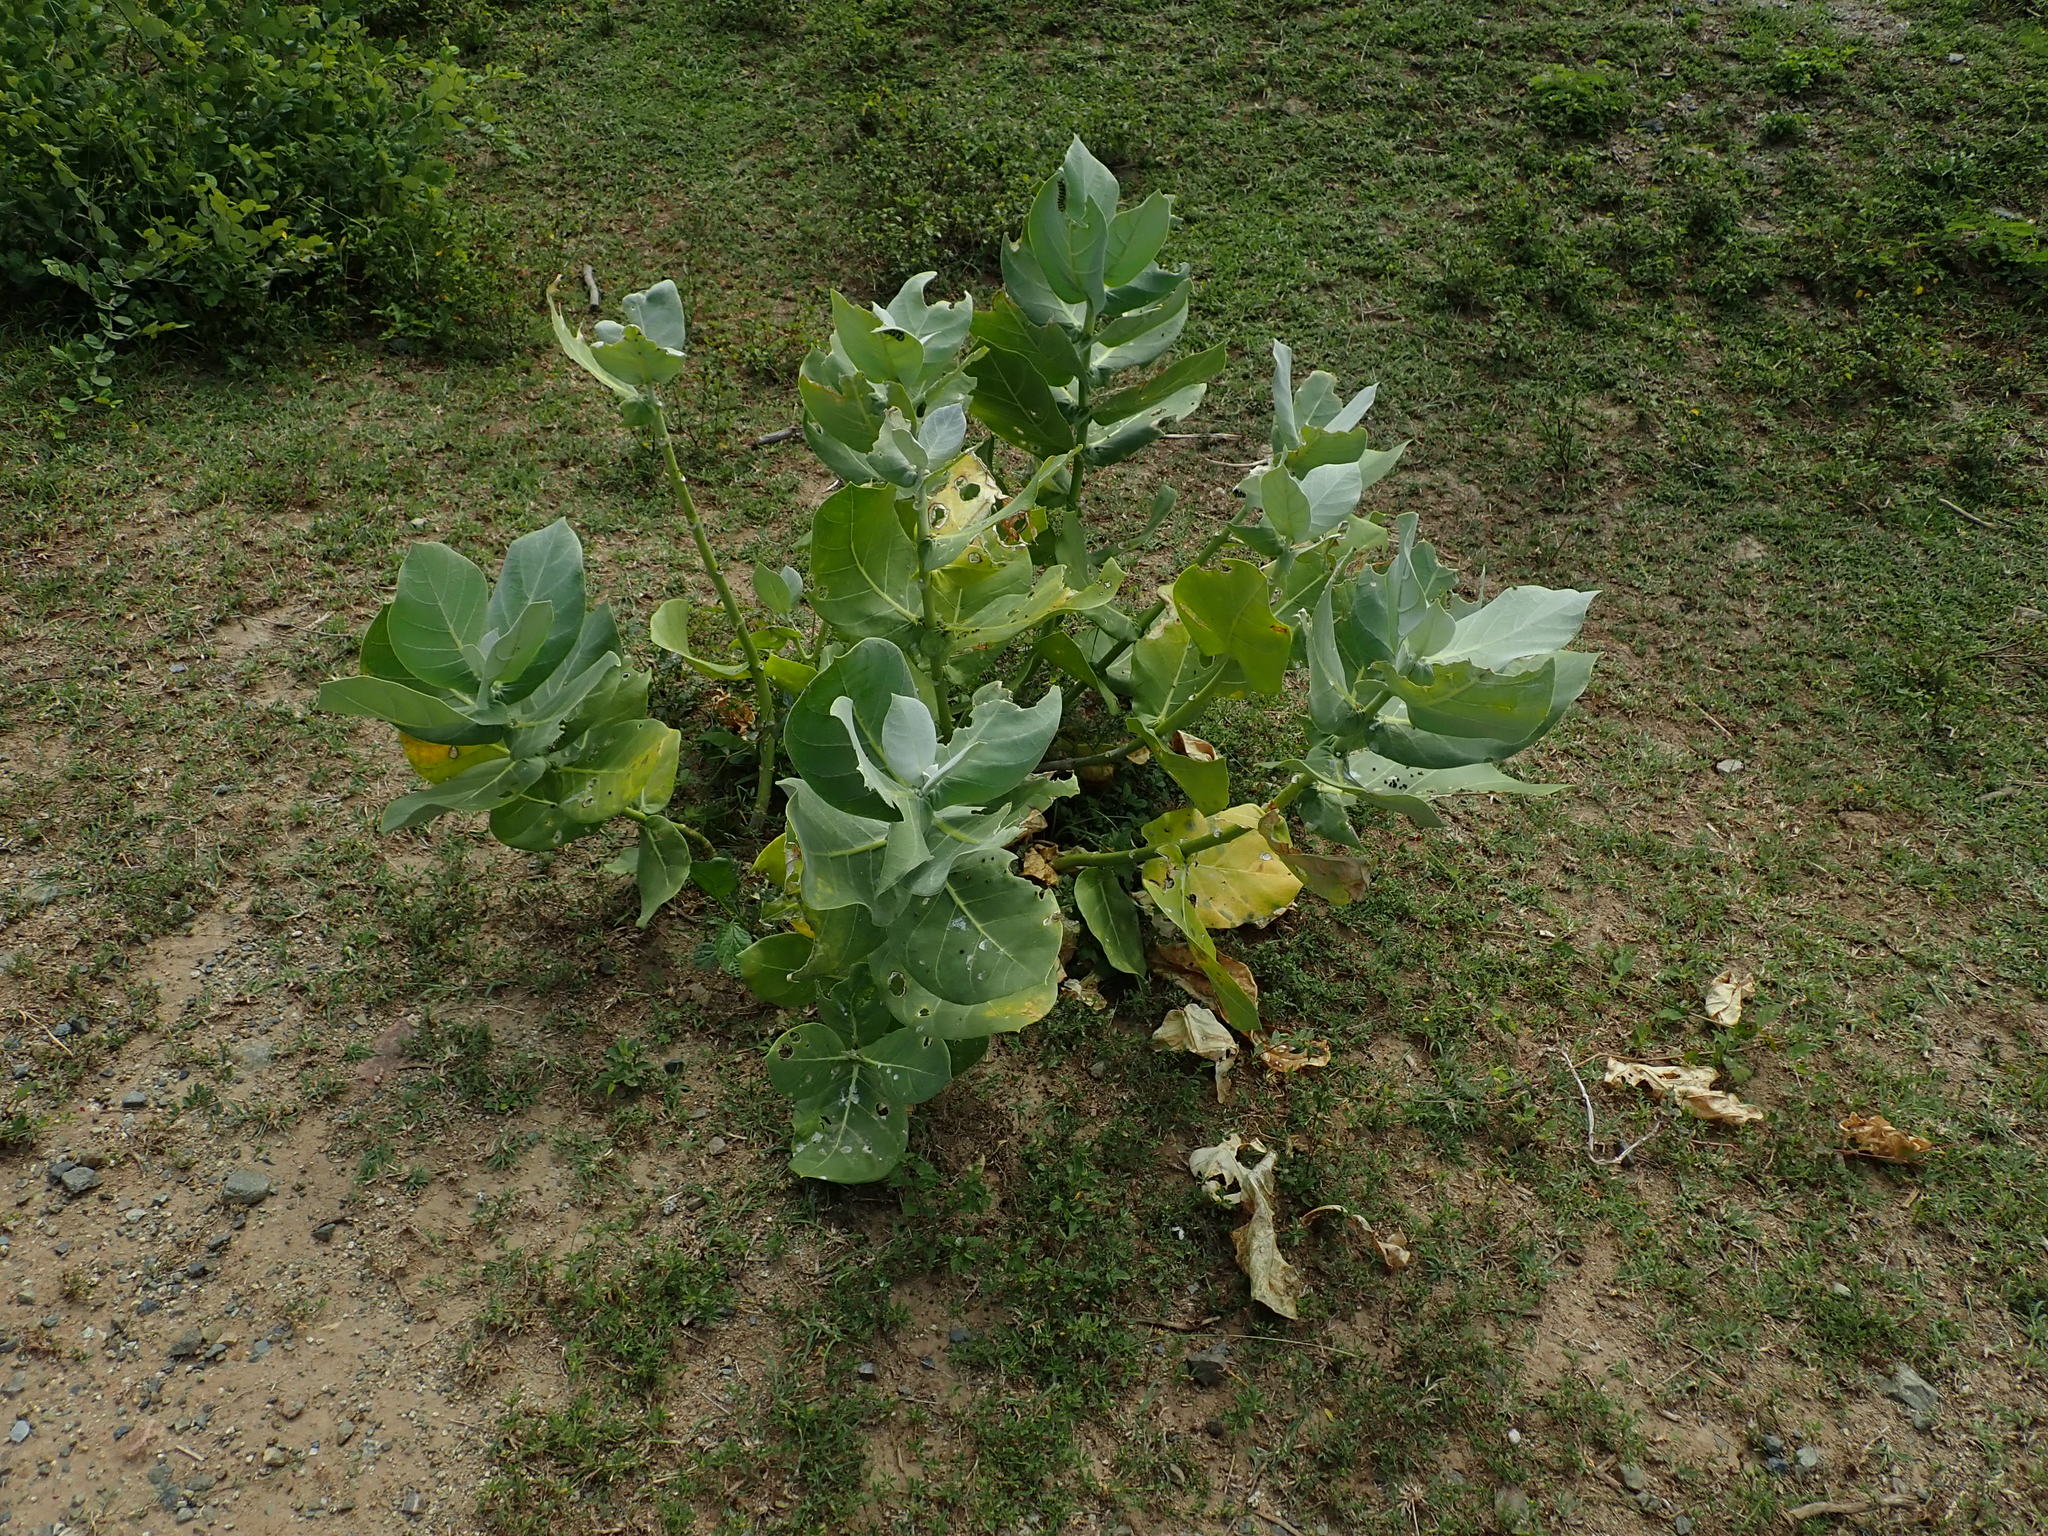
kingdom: Plantae
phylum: Tracheophyta
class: Magnoliopsida
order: Gentianales
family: Apocynaceae
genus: Calotropis
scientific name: Calotropis procera
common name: Roostertree
